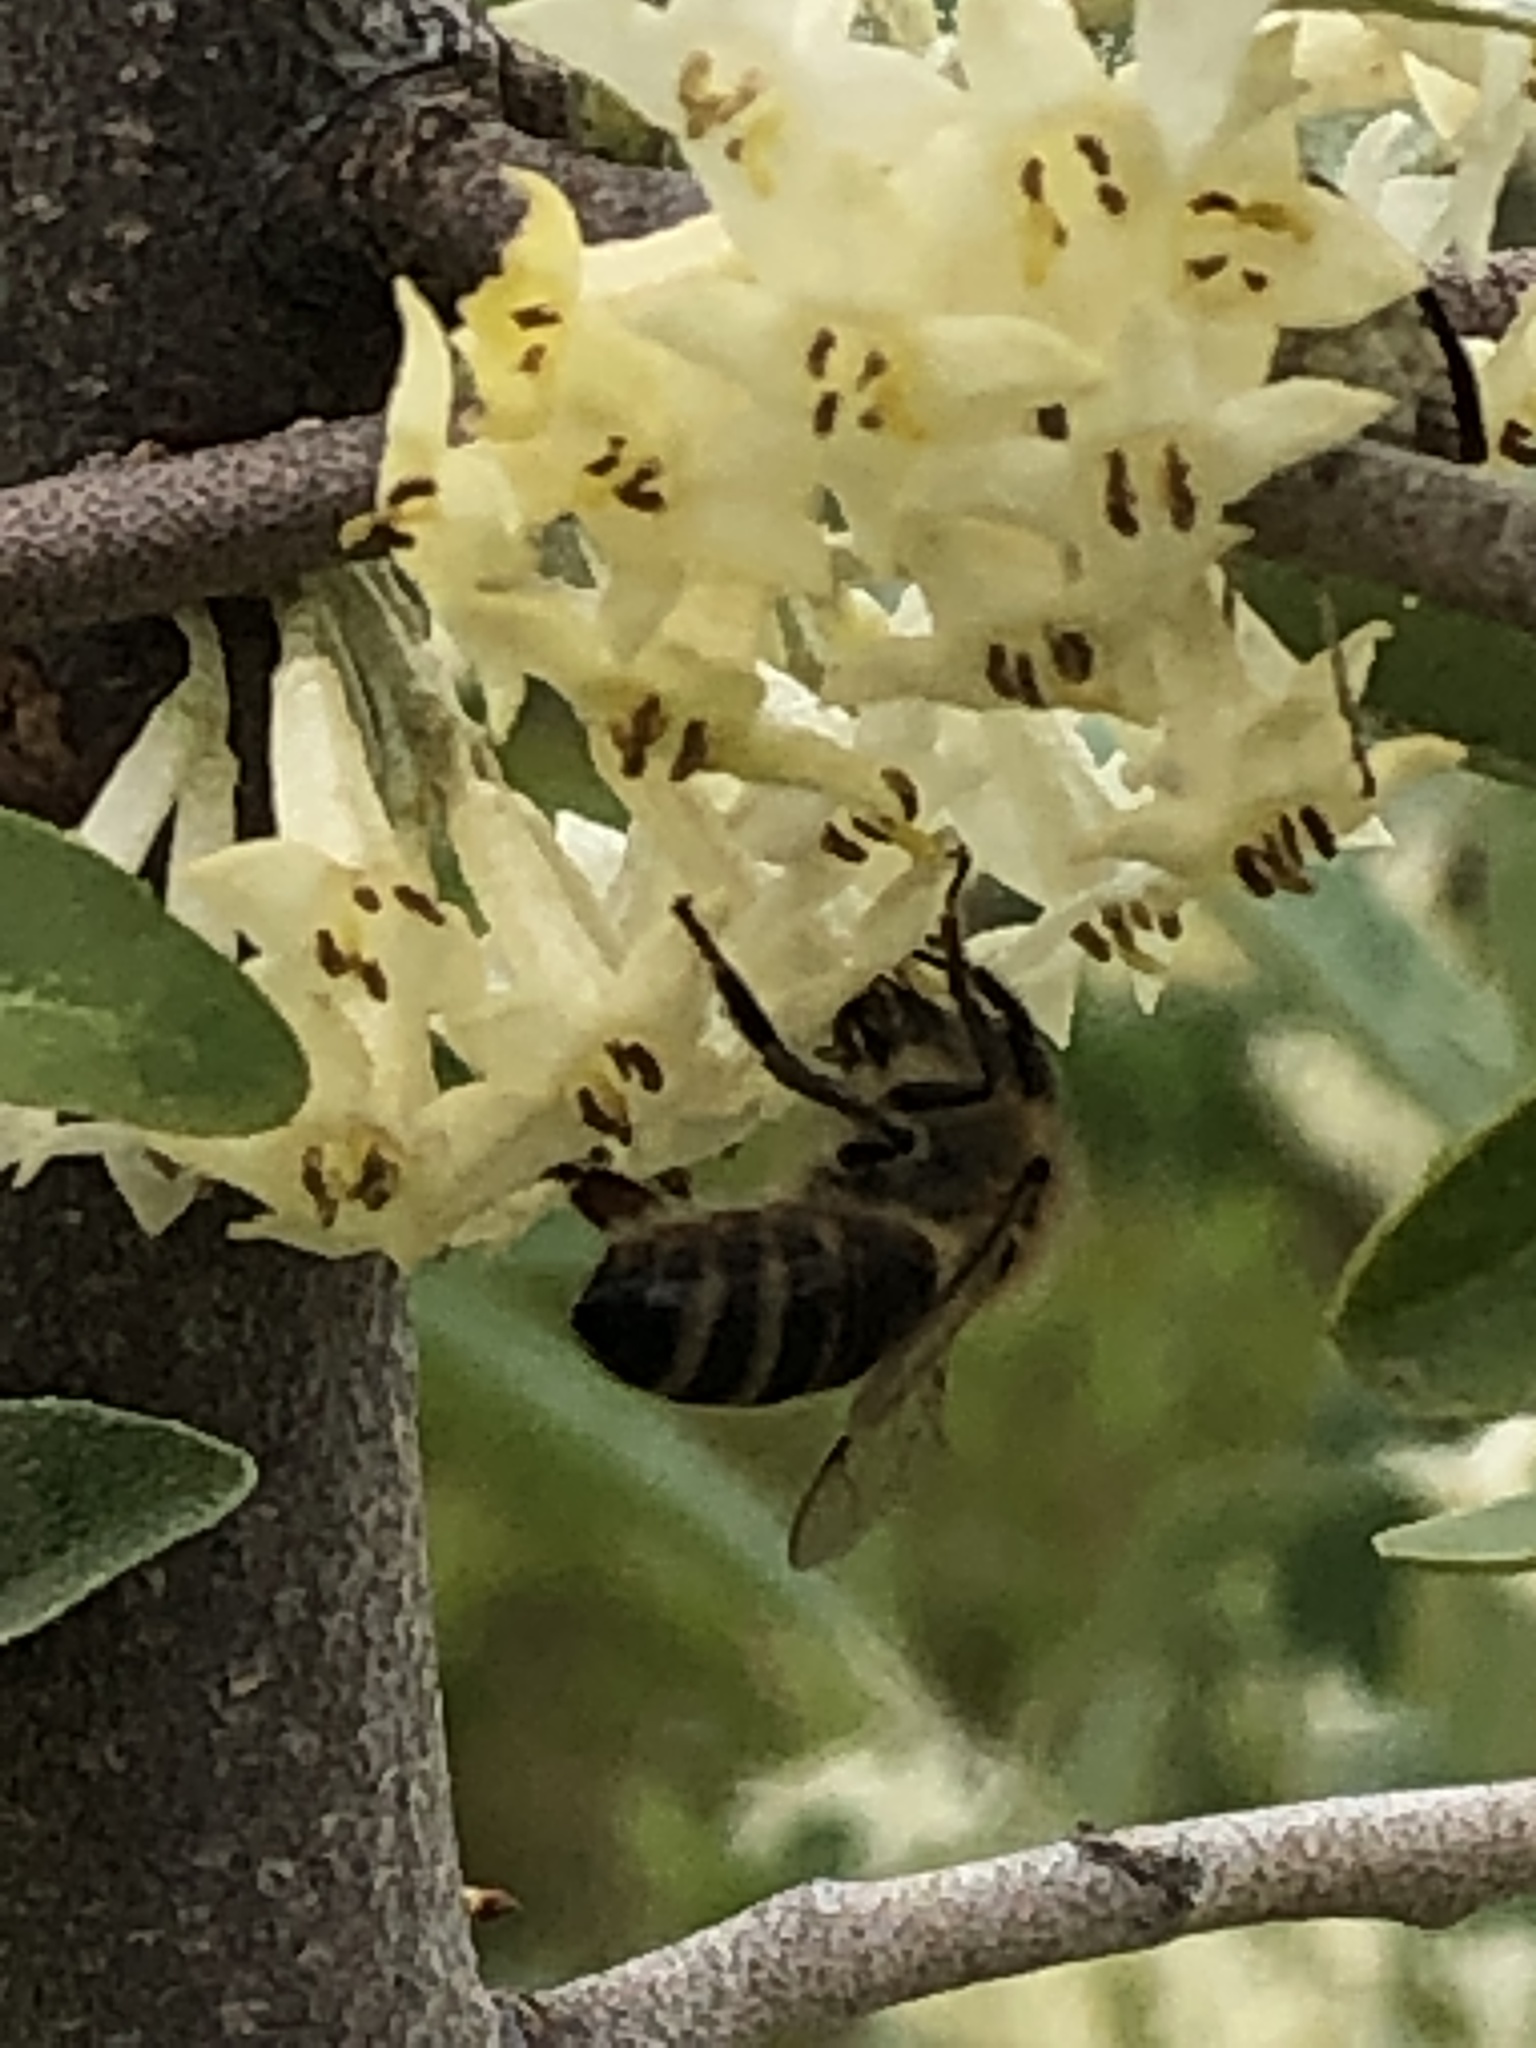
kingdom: Animalia
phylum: Arthropoda
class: Insecta
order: Hymenoptera
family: Apidae
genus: Apis
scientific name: Apis mellifera
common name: Honey bee
